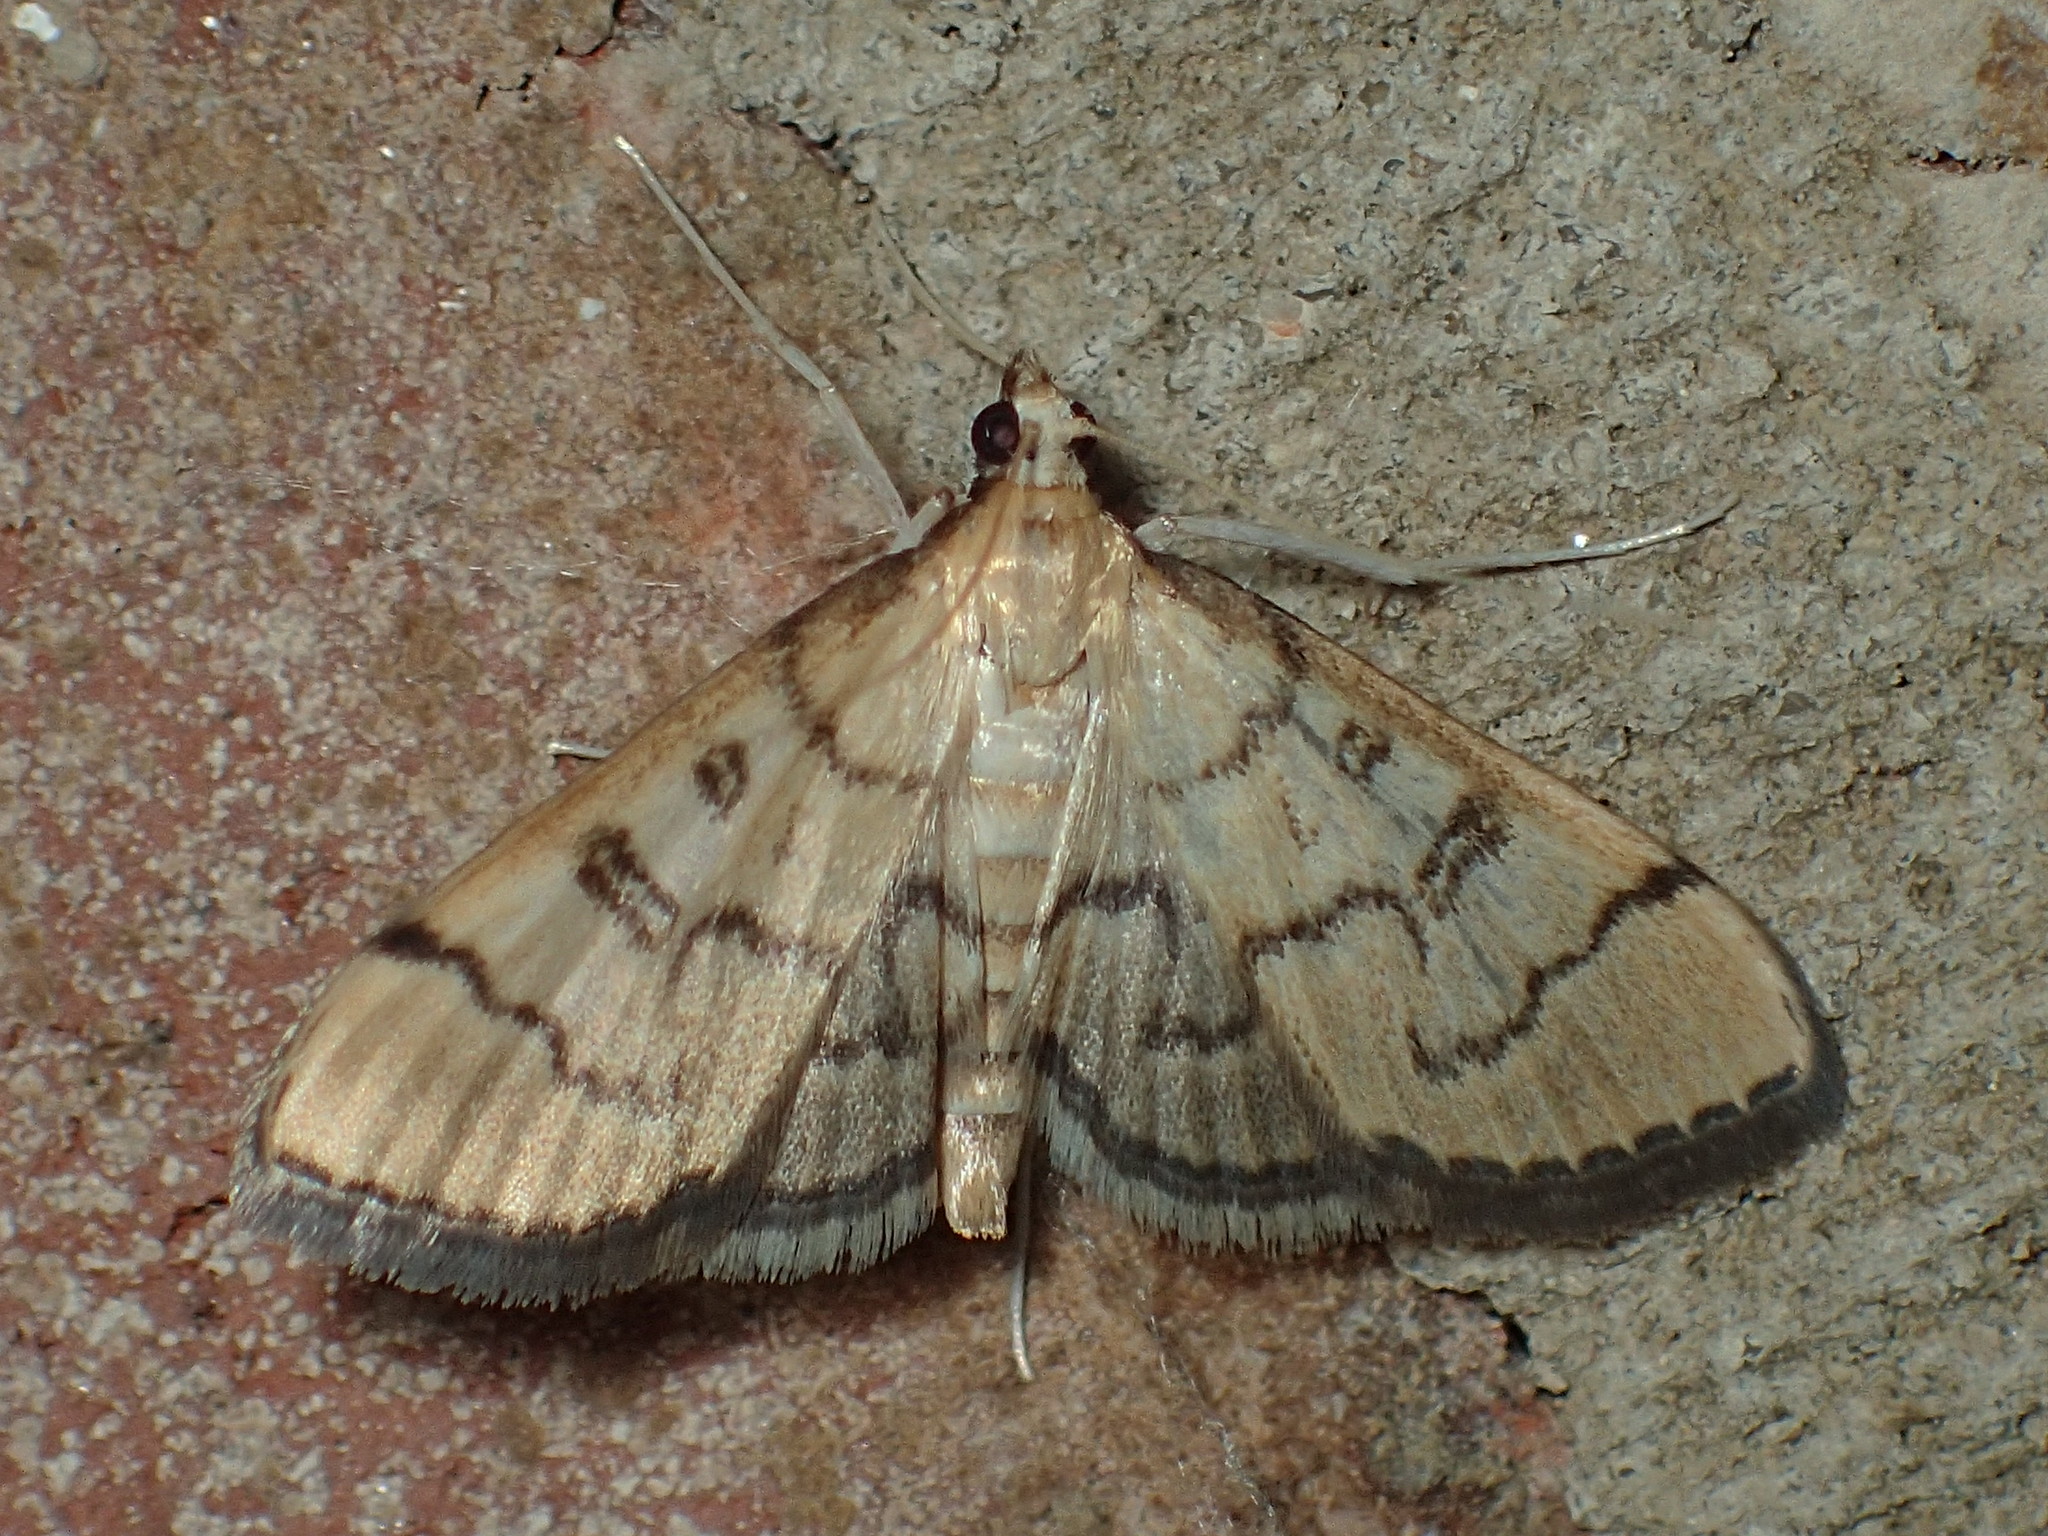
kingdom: Animalia
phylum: Arthropoda
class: Insecta
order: Lepidoptera
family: Crambidae
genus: Lamprosema
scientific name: Lamprosema Blepharomastix ranalis
